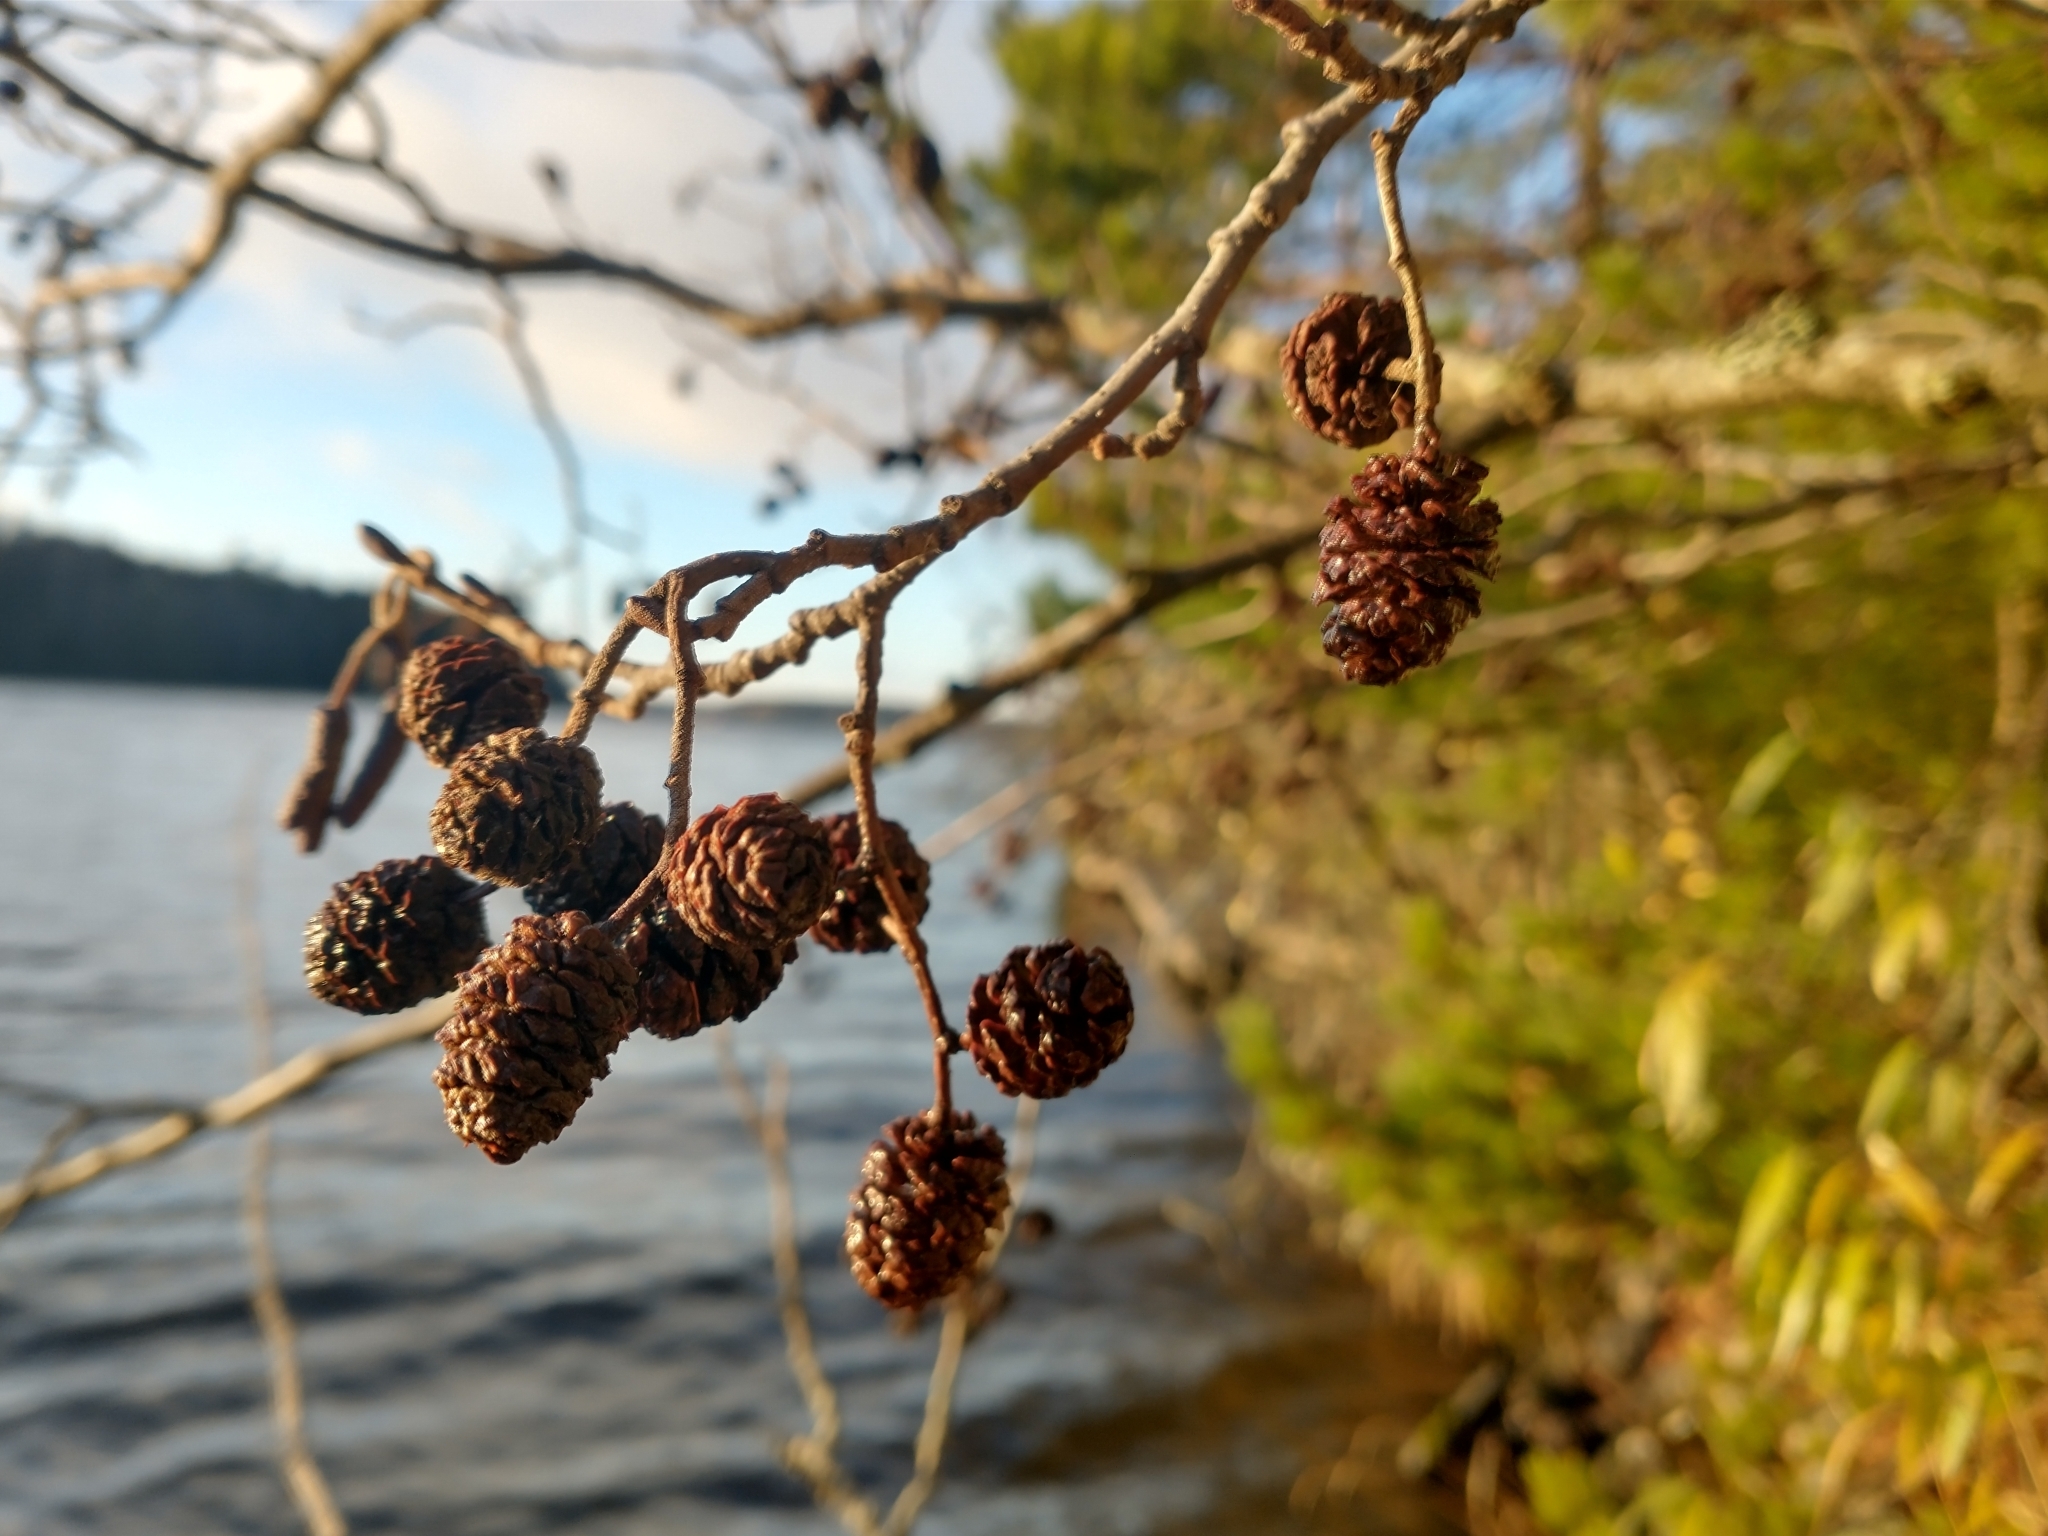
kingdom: Plantae
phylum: Tracheophyta
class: Magnoliopsida
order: Fagales
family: Betulaceae
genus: Alnus
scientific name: Alnus glutinosa
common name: Black alder
